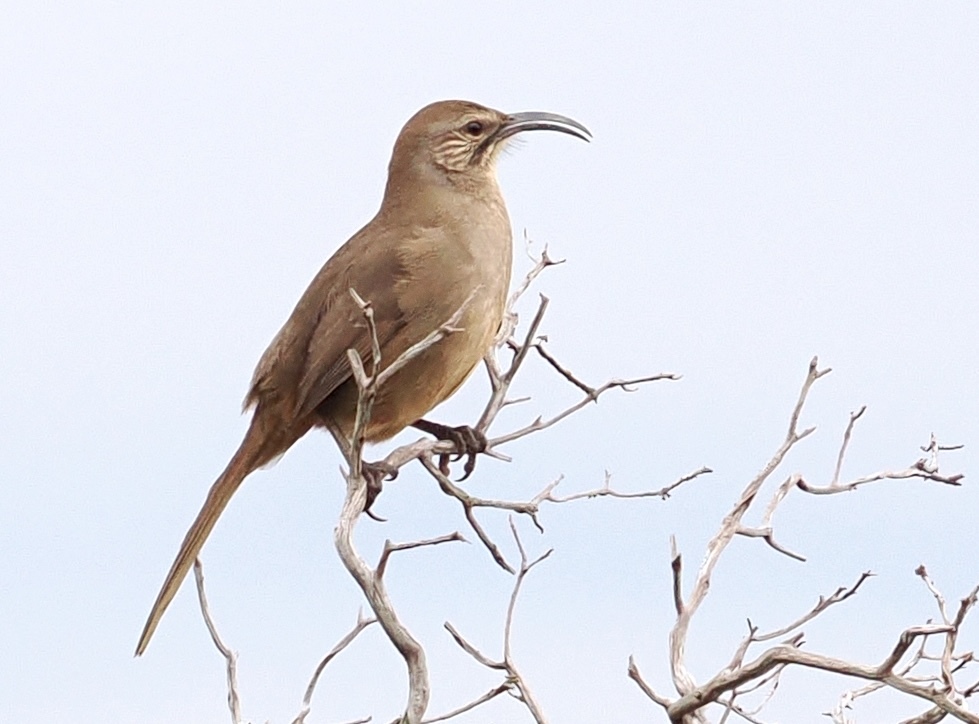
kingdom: Animalia
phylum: Chordata
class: Aves
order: Passeriformes
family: Mimidae
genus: Toxostoma
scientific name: Toxostoma redivivum
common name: California thrasher
